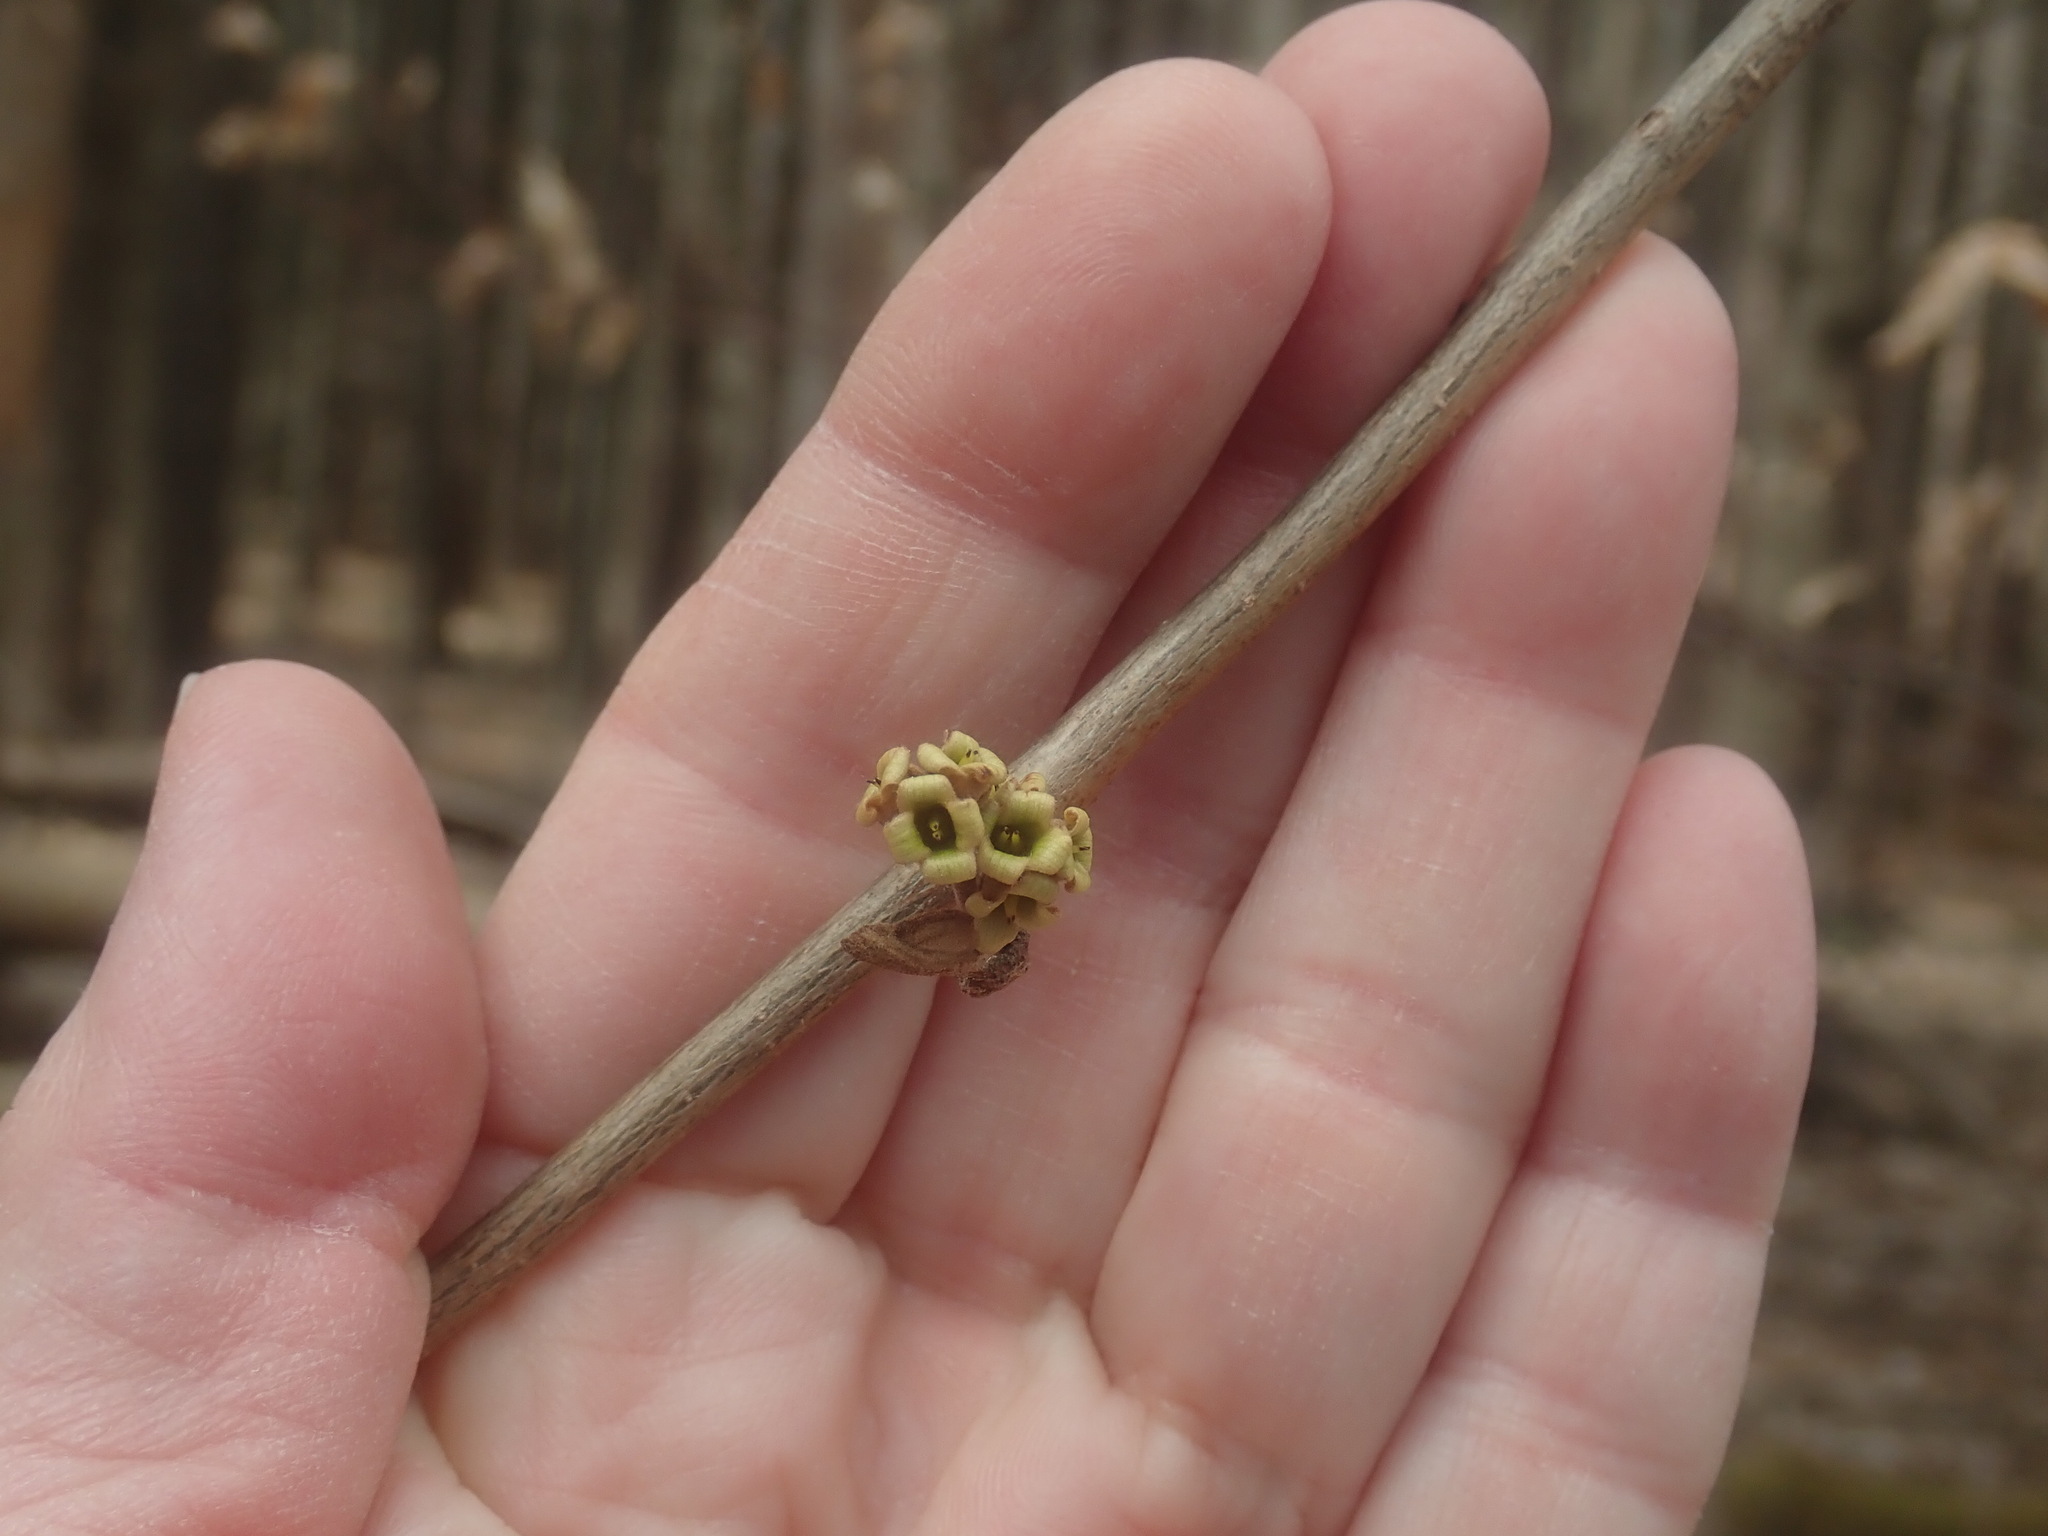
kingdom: Plantae
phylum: Tracheophyta
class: Magnoliopsida
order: Saxifragales
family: Hamamelidaceae
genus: Hamamelis
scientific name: Hamamelis virginiana
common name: Witch-hazel
